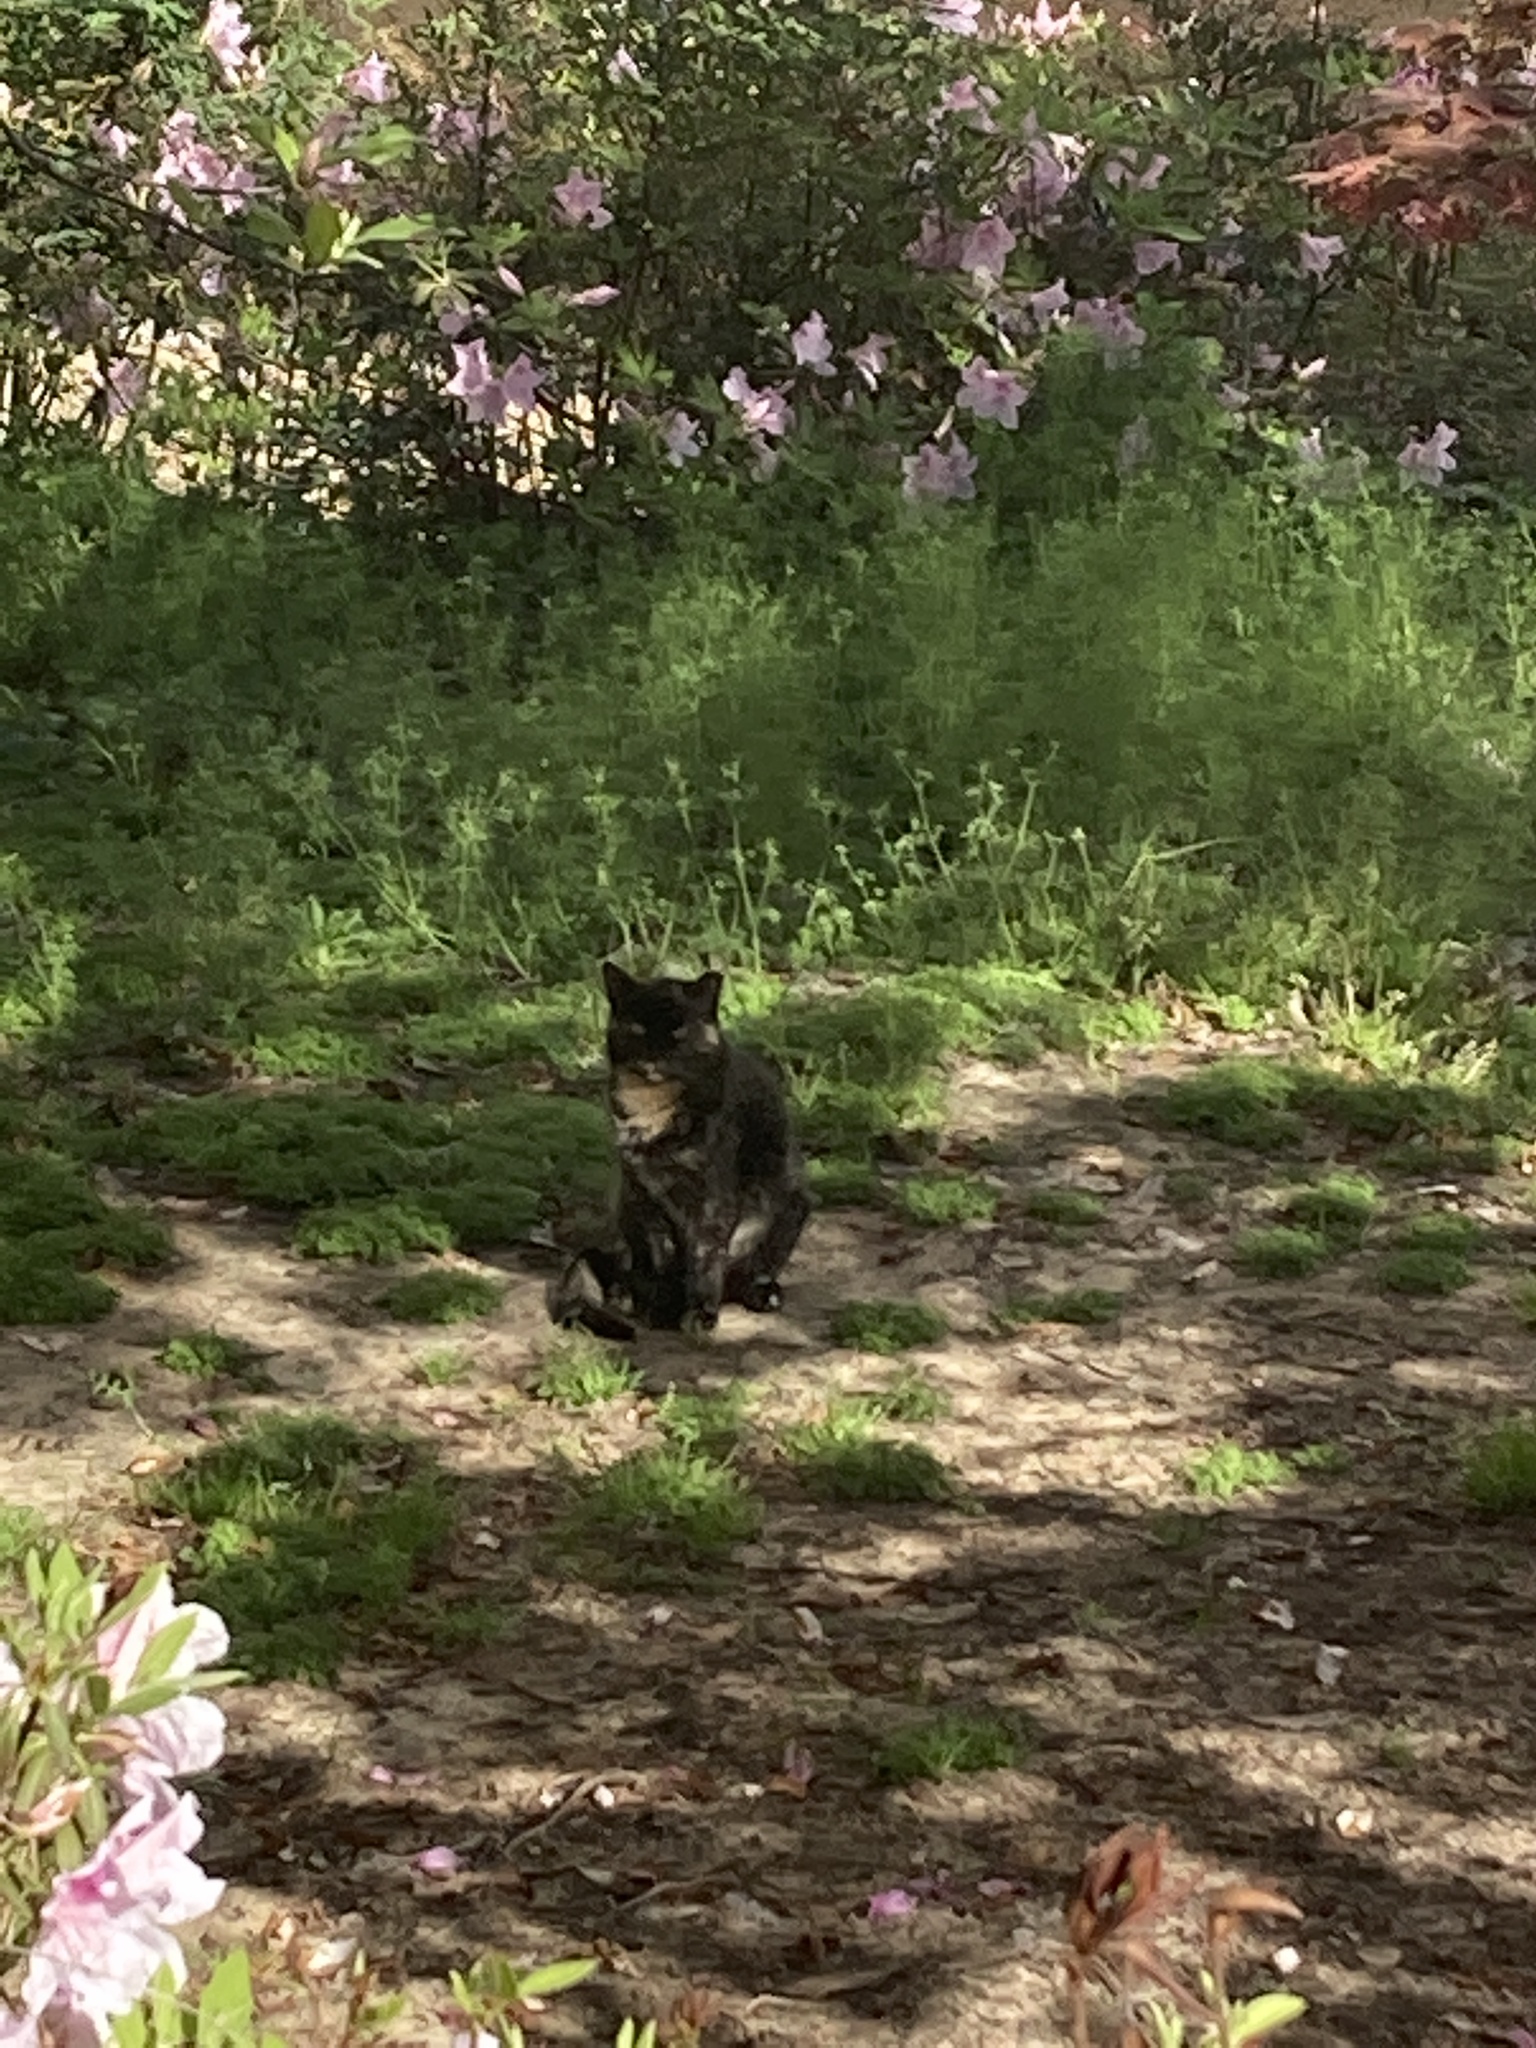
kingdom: Animalia
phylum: Chordata
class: Mammalia
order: Carnivora
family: Felidae
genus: Felis
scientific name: Felis catus
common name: Domestic cat
